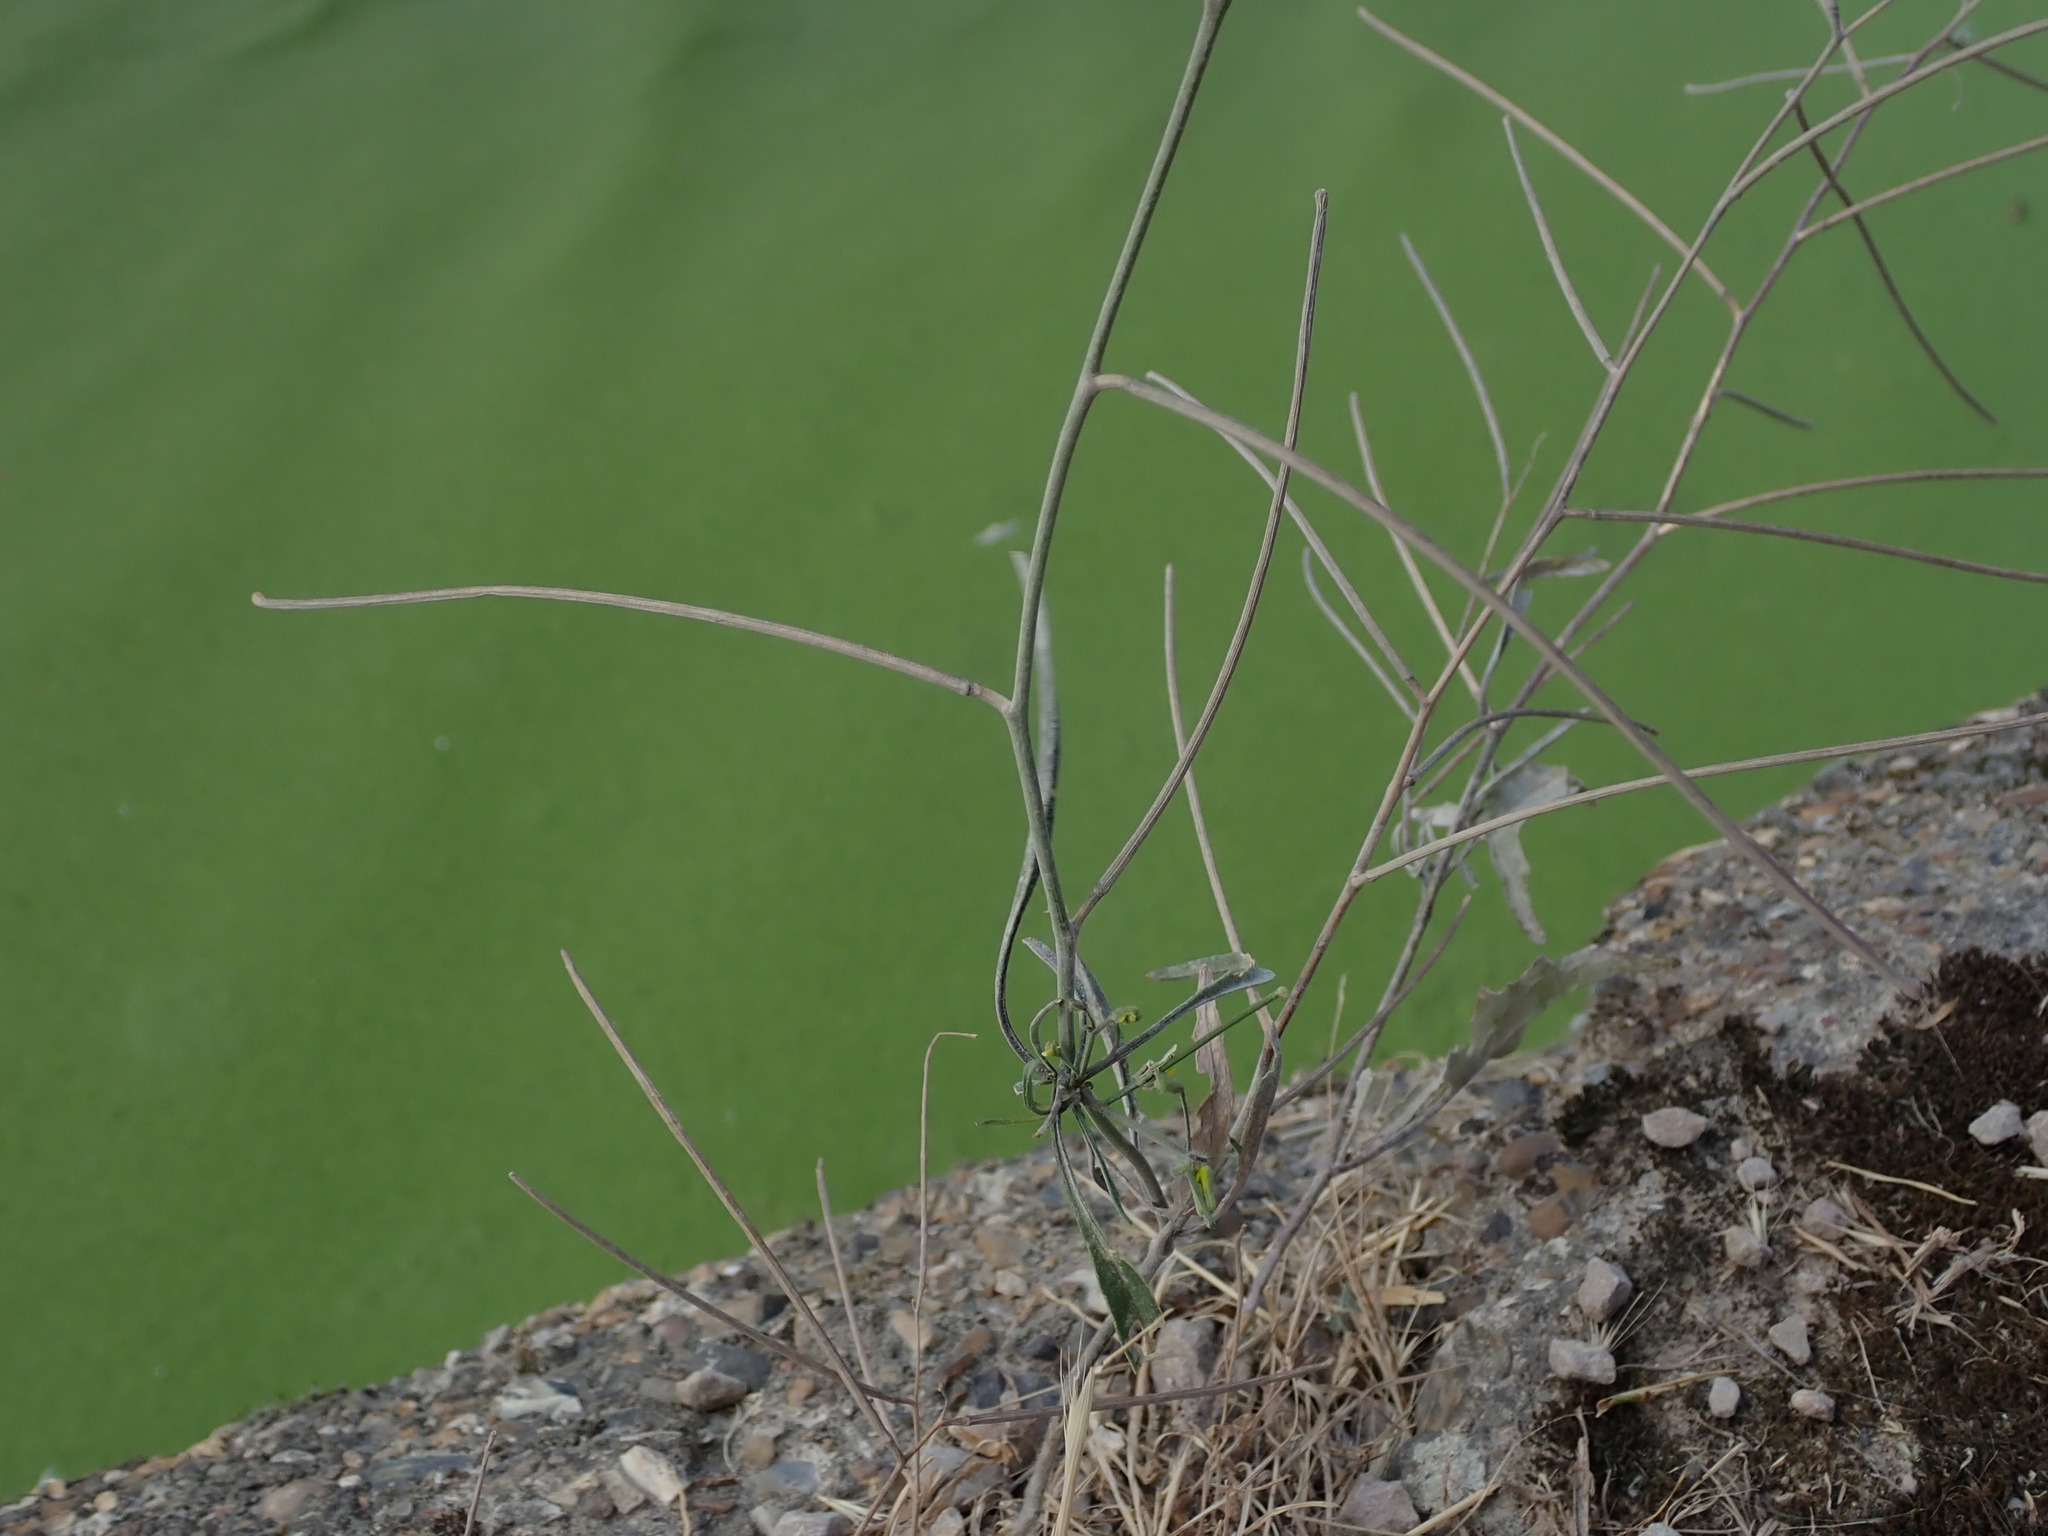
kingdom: Plantae
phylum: Tracheophyta
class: Magnoliopsida
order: Brassicales
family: Brassicaceae
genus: Sisymbrium
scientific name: Sisymbrium orientale
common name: Eastern rocket
